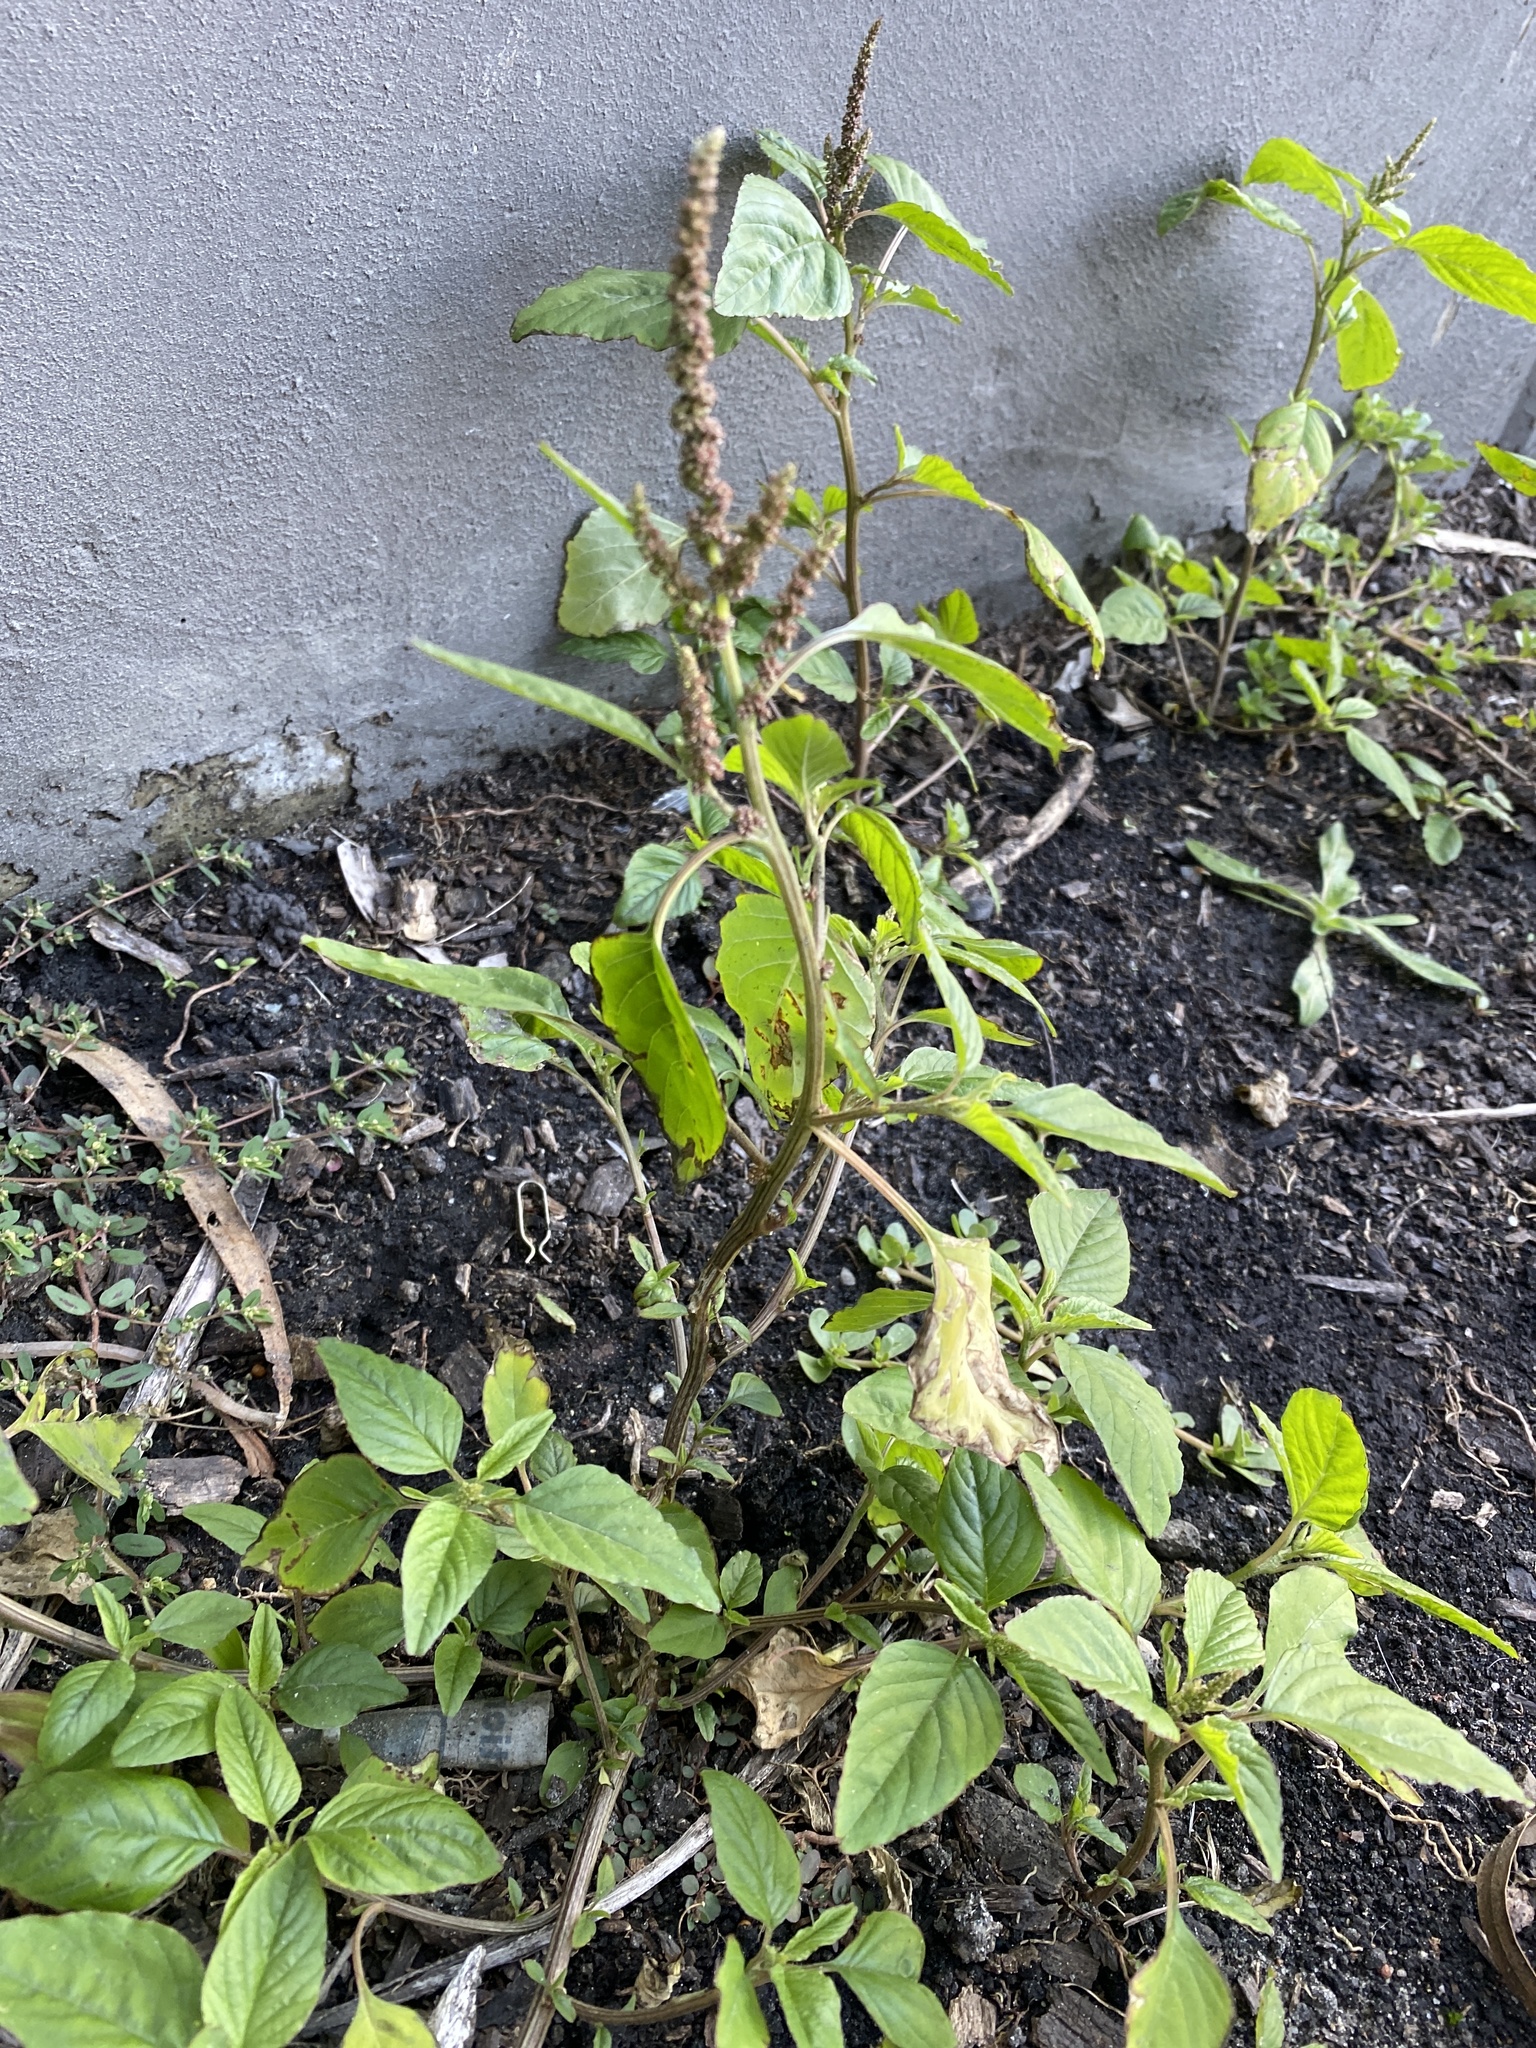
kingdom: Plantae
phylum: Tracheophyta
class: Magnoliopsida
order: Caryophyllales
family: Amaranthaceae
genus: Amaranthus
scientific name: Amaranthus viridis
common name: Slender amaranth
